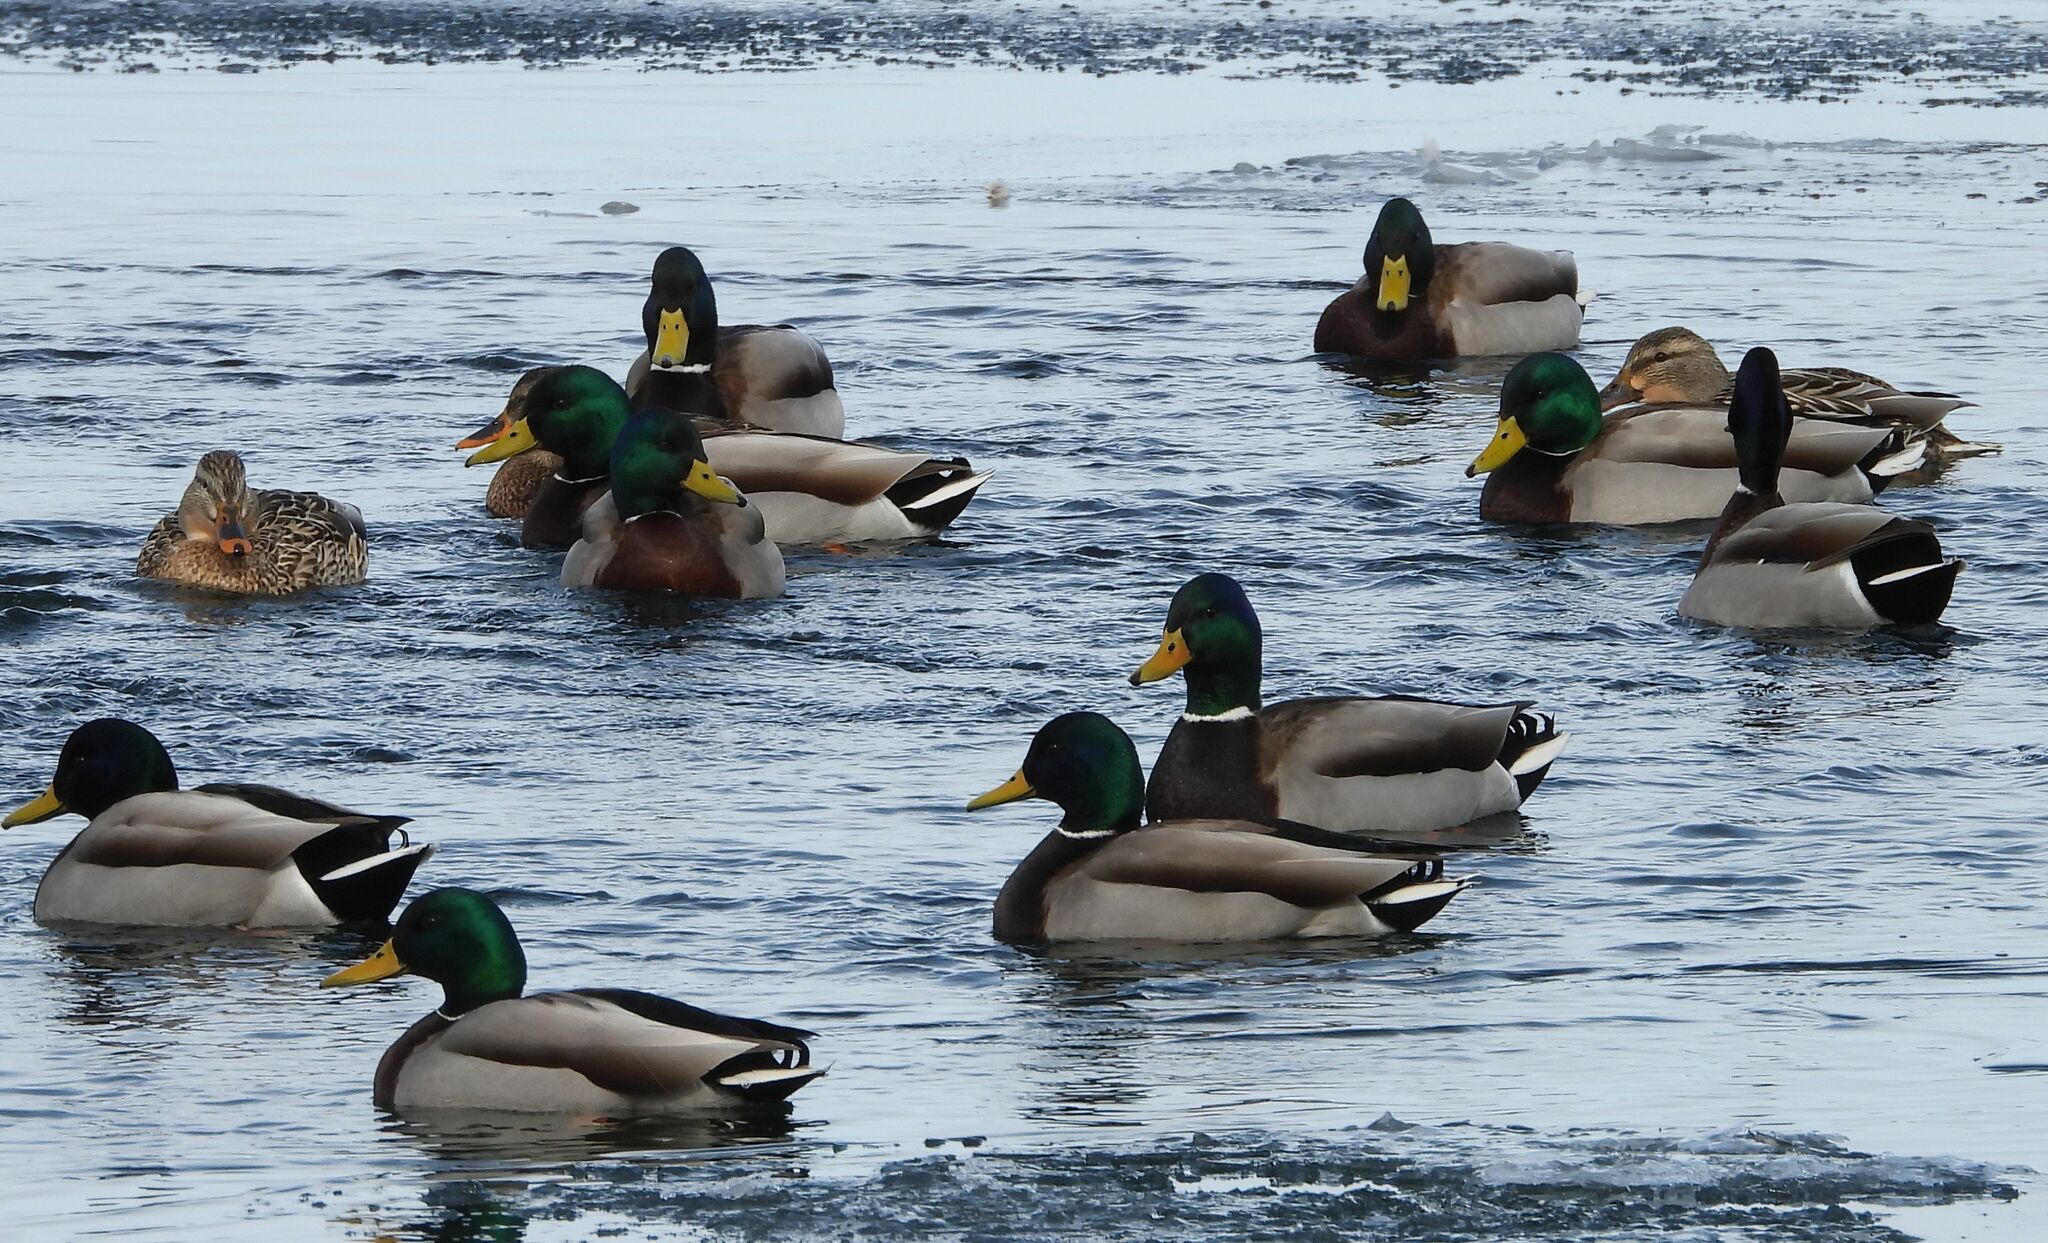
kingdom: Animalia
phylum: Chordata
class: Aves
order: Anseriformes
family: Anatidae
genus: Anas
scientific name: Anas platyrhynchos
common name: Mallard
